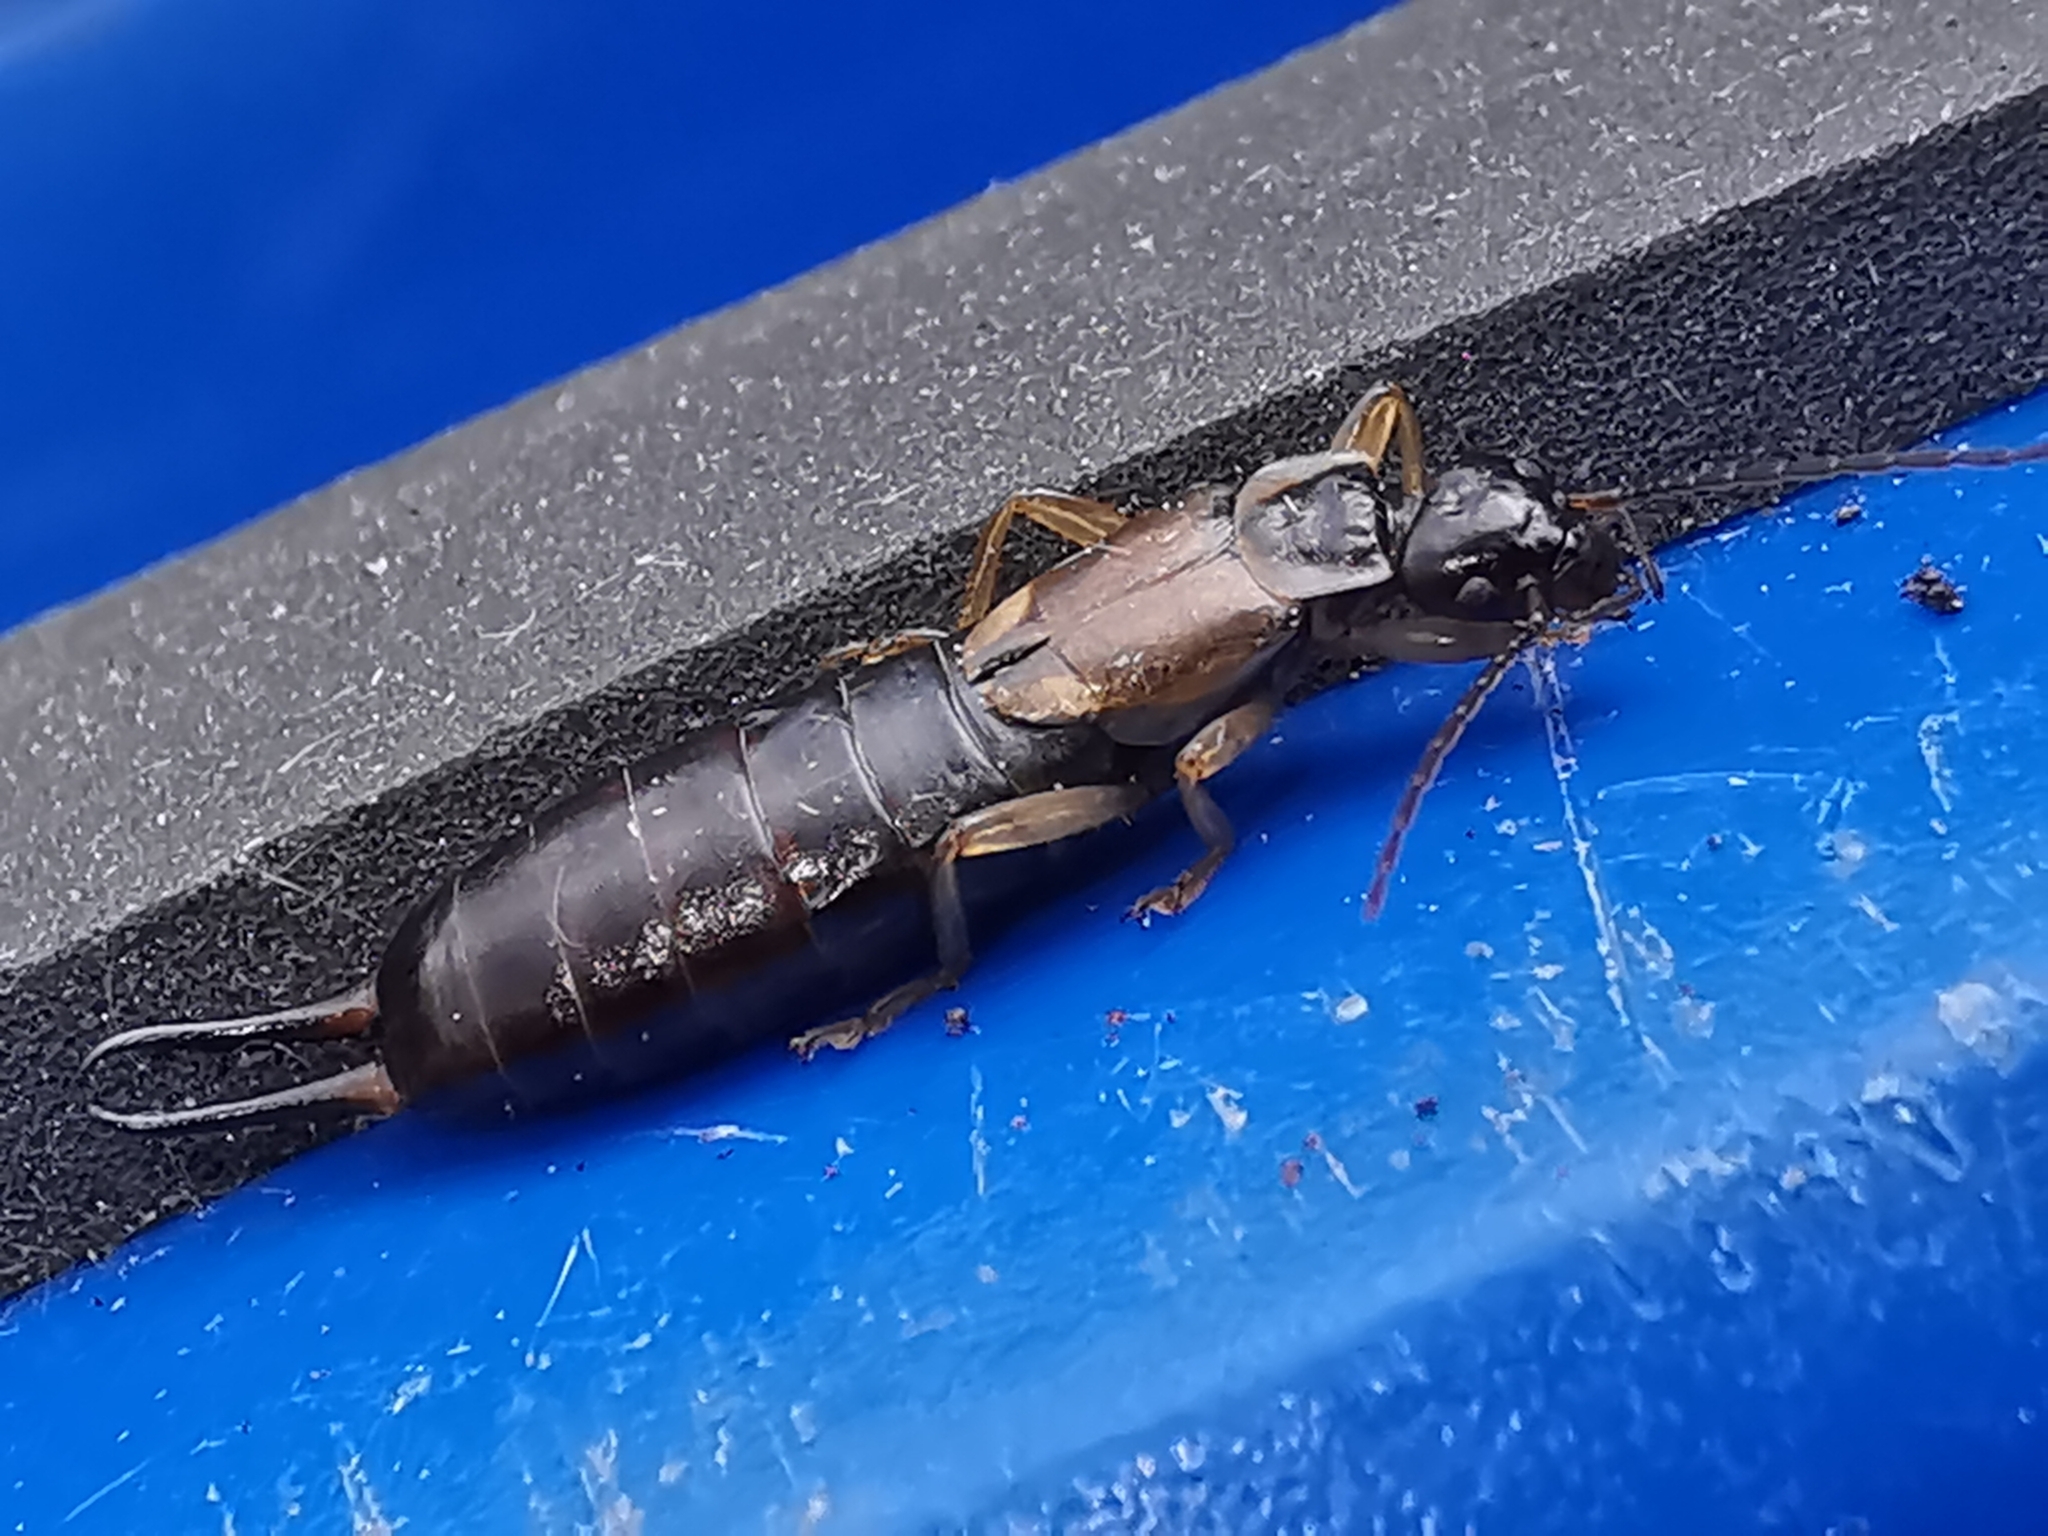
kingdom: Animalia
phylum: Arthropoda
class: Insecta
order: Dermaptera
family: Forficulidae
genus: Forficula
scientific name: Forficula
